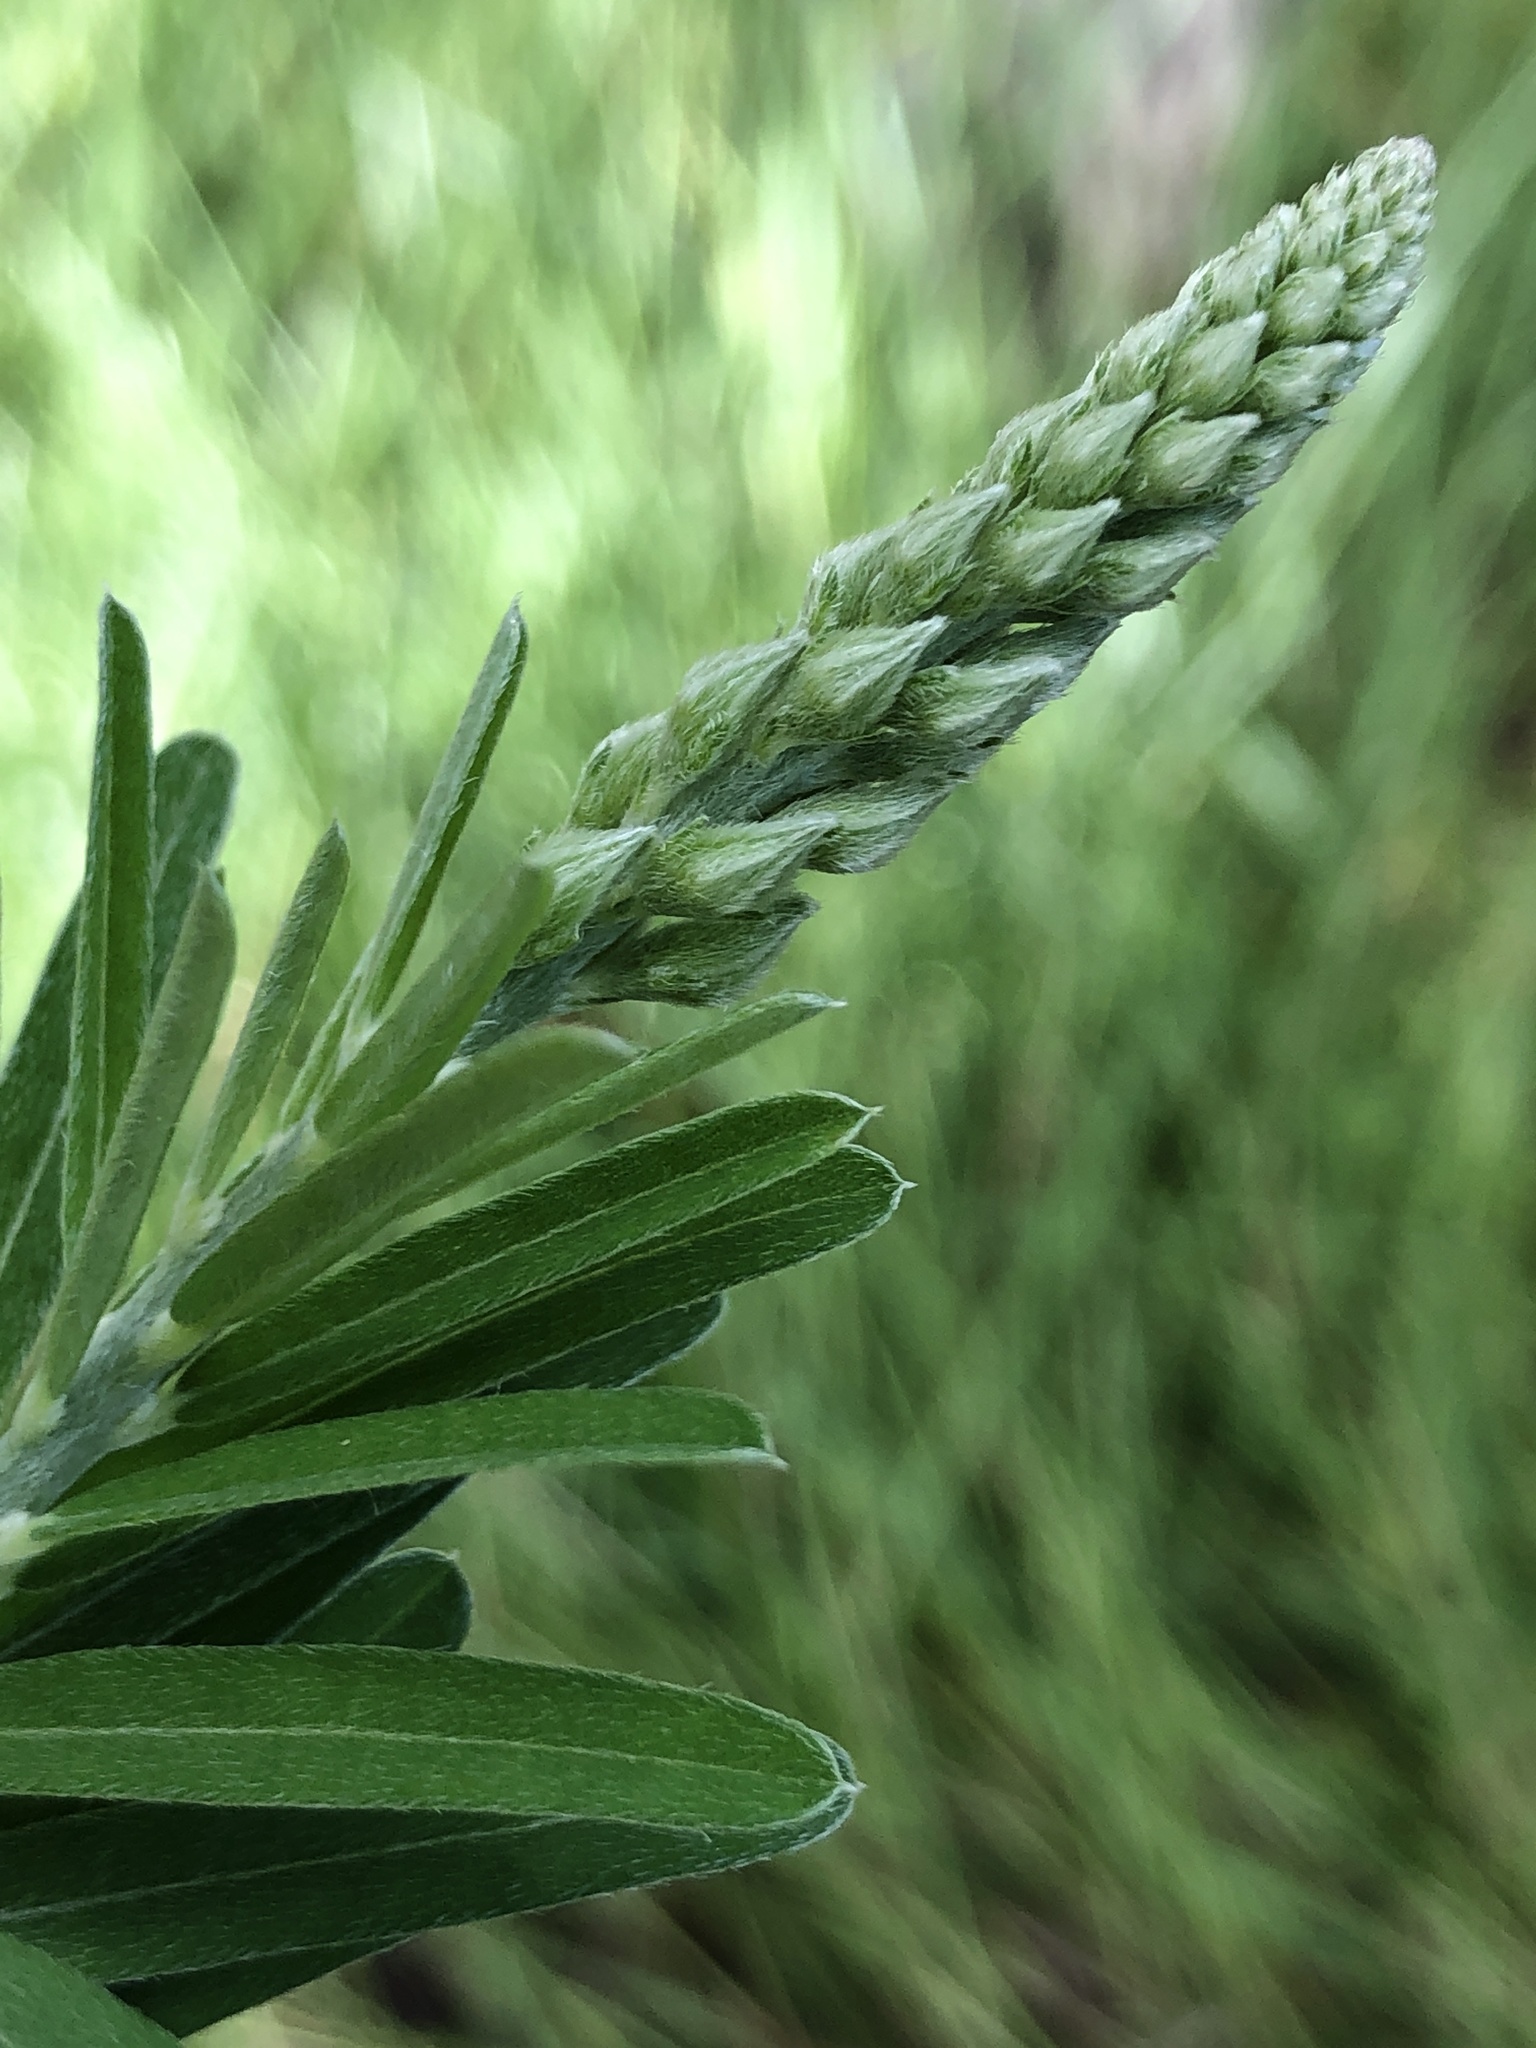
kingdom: Plantae
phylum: Tracheophyta
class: Magnoliopsida
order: Fabales
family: Fabaceae
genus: Crotalaria
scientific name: Crotalaria montana
